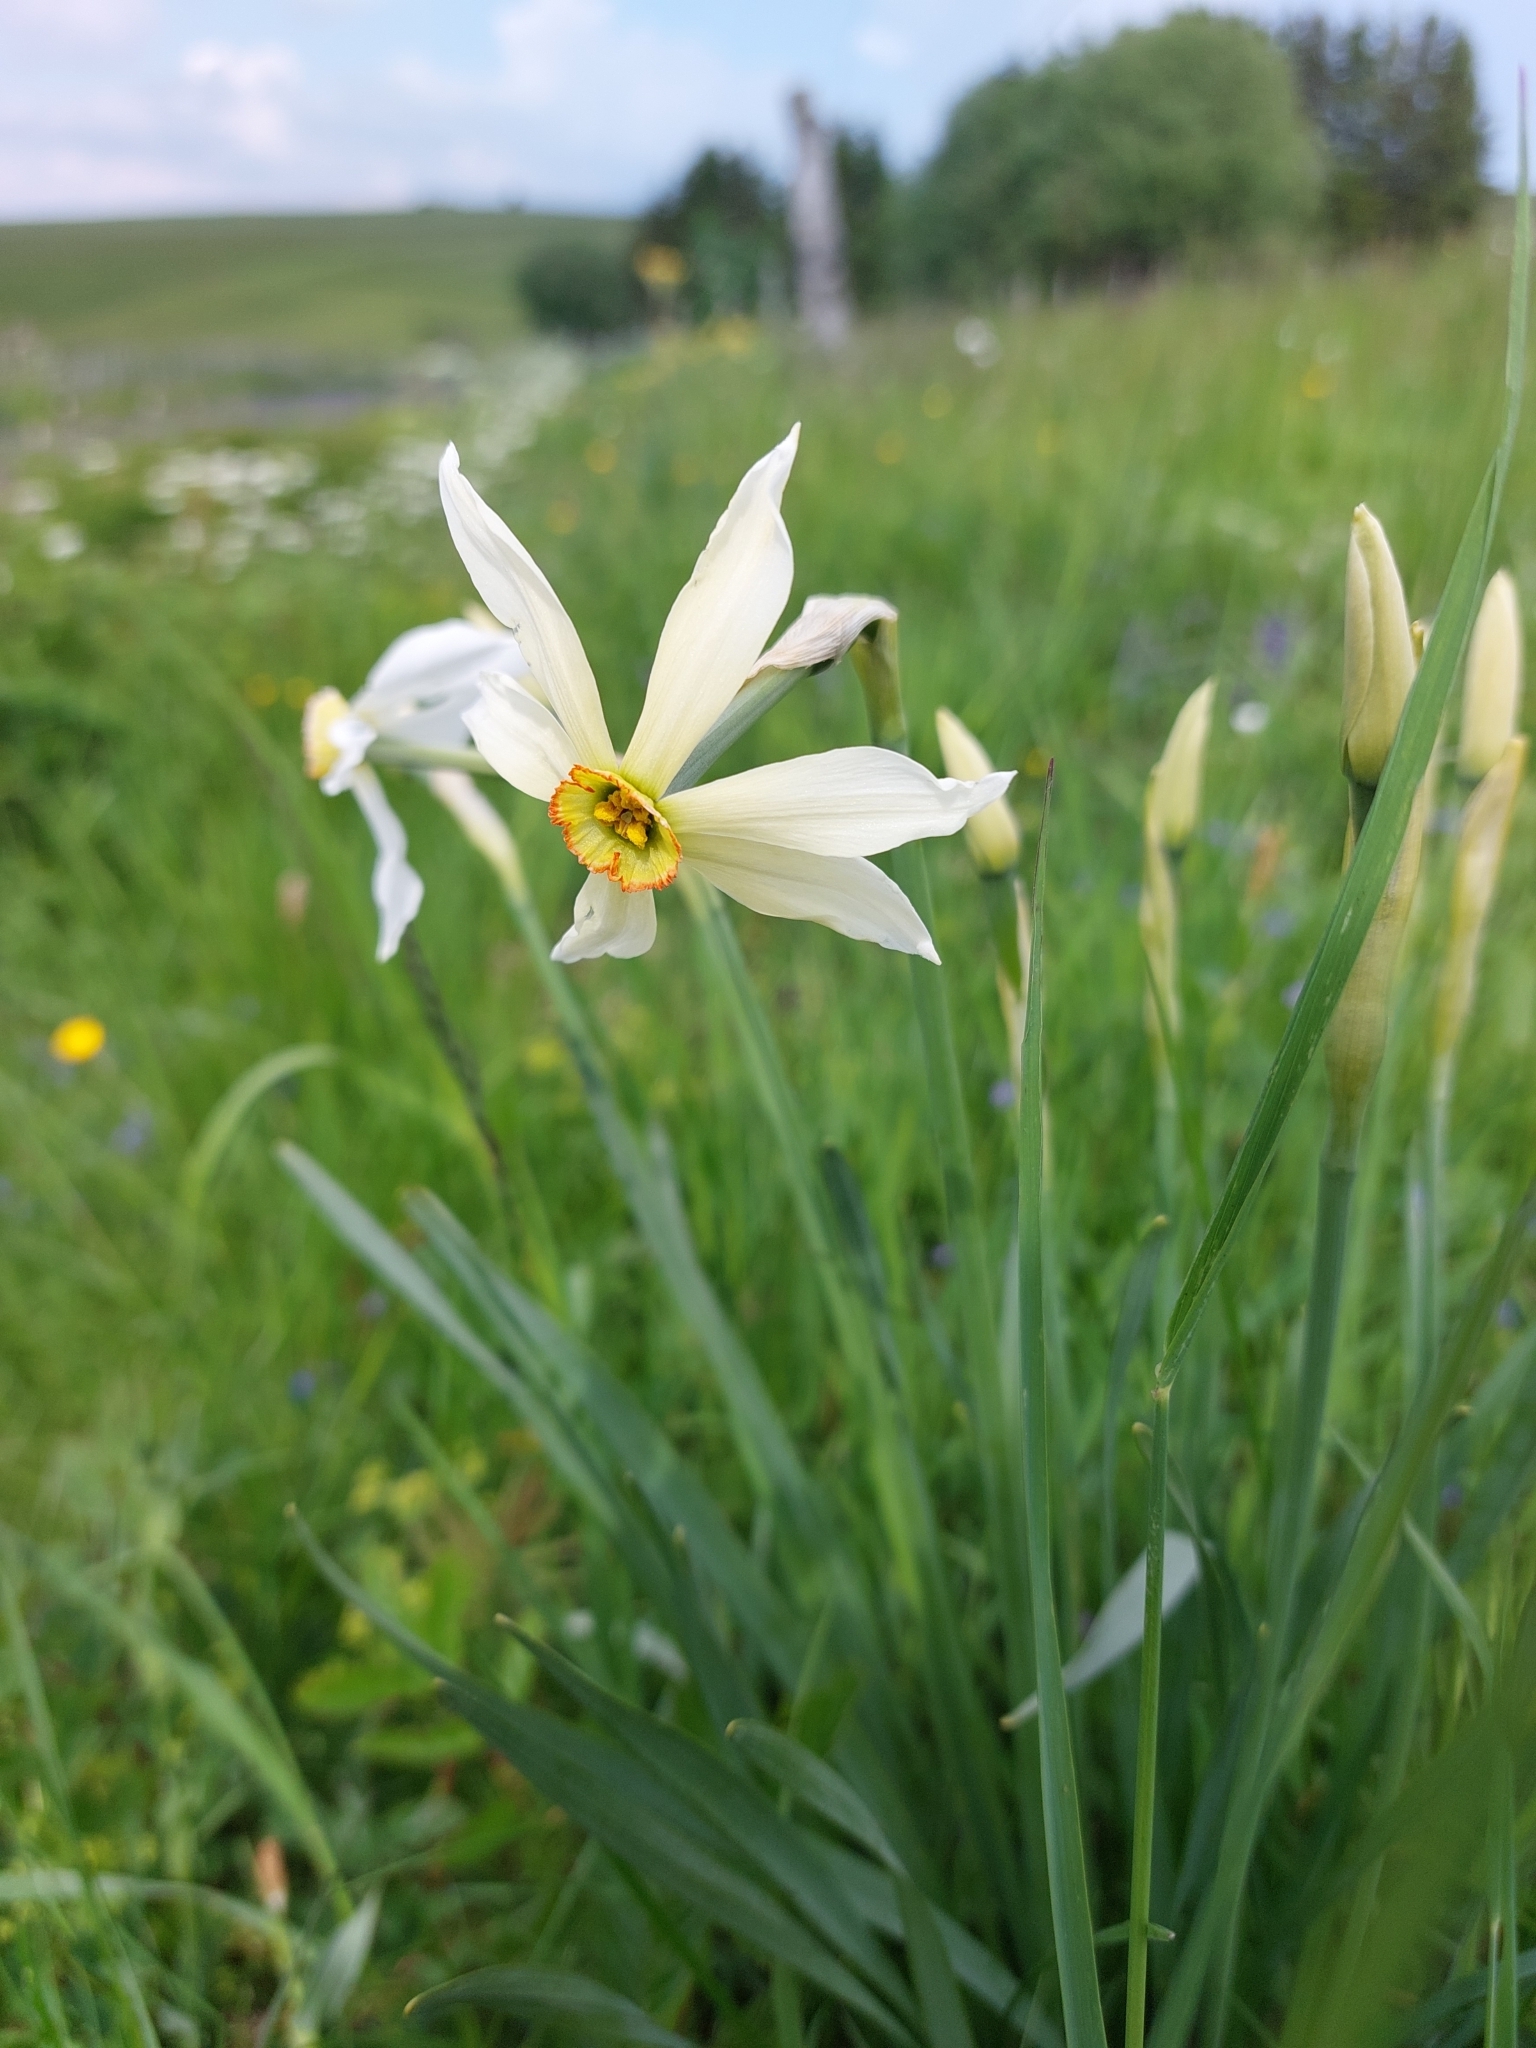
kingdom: Plantae
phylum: Tracheophyta
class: Liliopsida
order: Asparagales
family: Amaryllidaceae
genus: Narcissus
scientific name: Narcissus poeticus
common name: Pheasant's-eye daffodil
